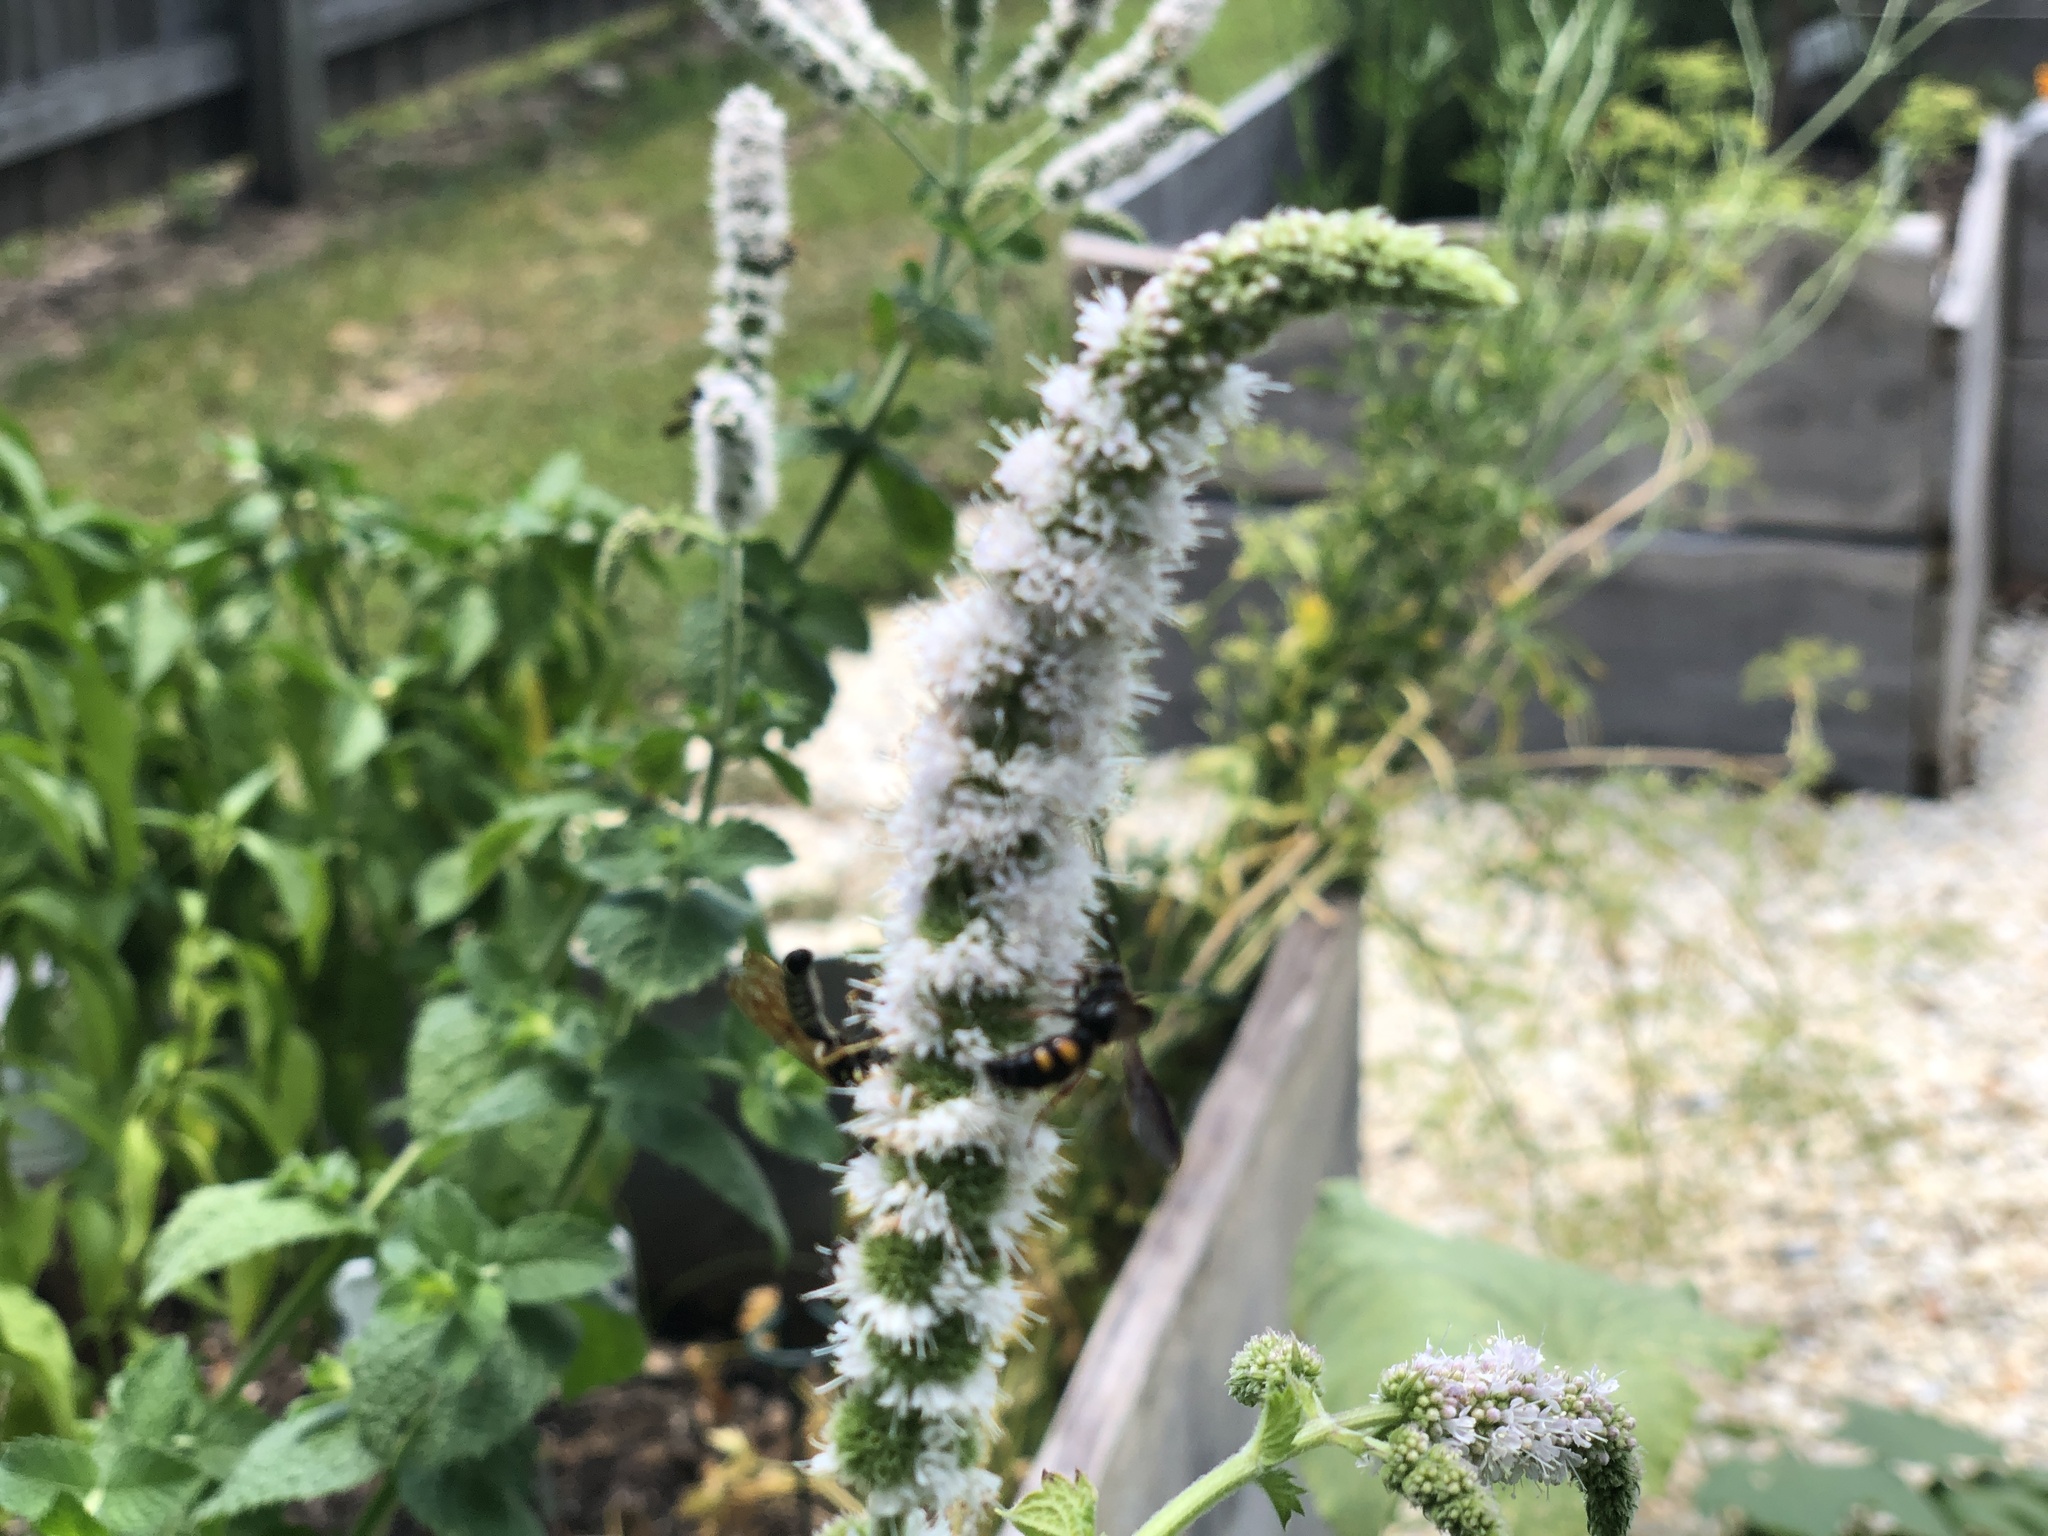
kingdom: Animalia
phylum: Arthropoda
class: Insecta
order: Hymenoptera
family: Scoliidae
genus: Scolia
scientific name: Scolia nobilitata
